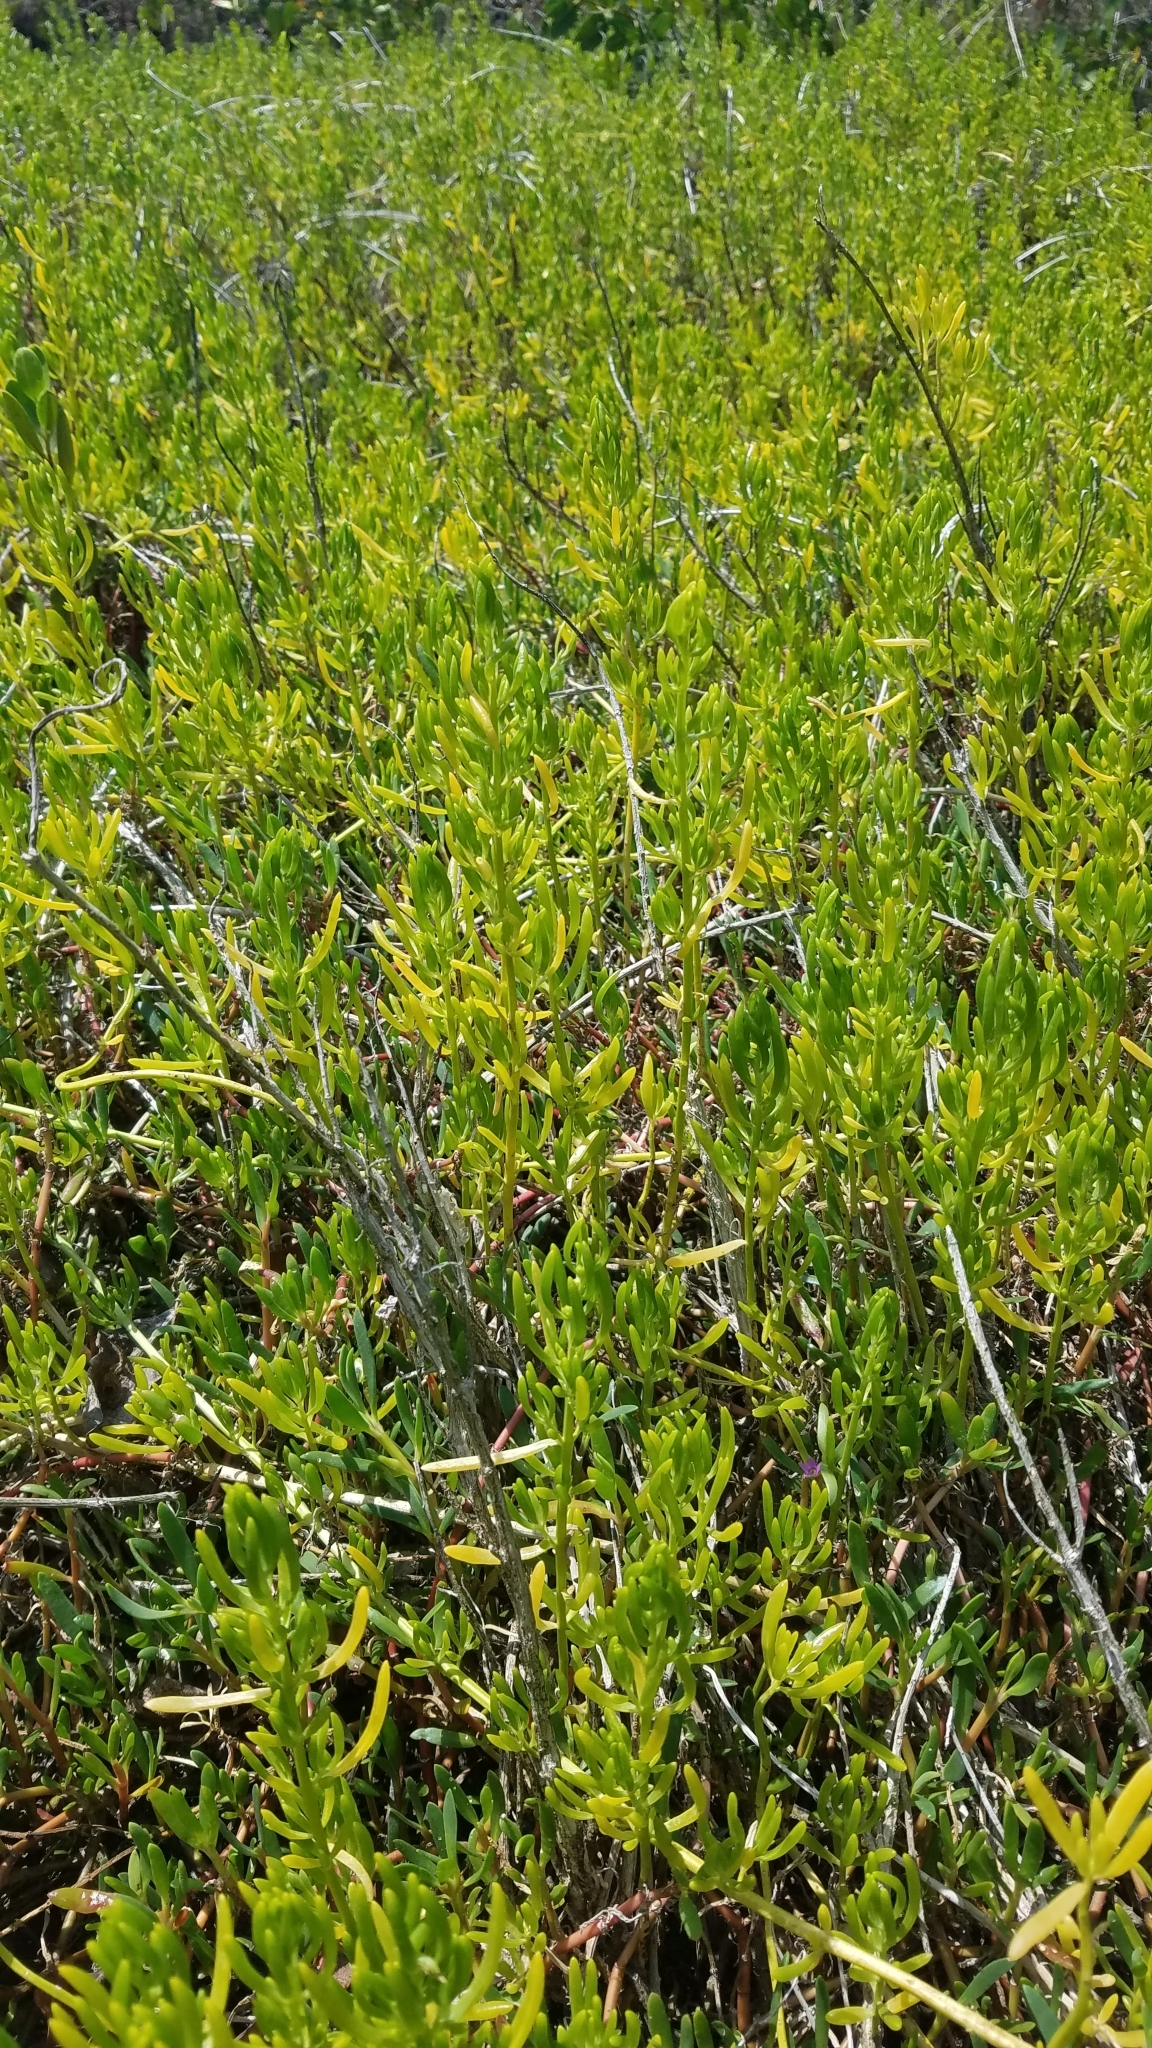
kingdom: Plantae
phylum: Tracheophyta
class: Magnoliopsida
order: Brassicales
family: Bataceae
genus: Batis
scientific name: Batis maritima
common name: Turtleweed
